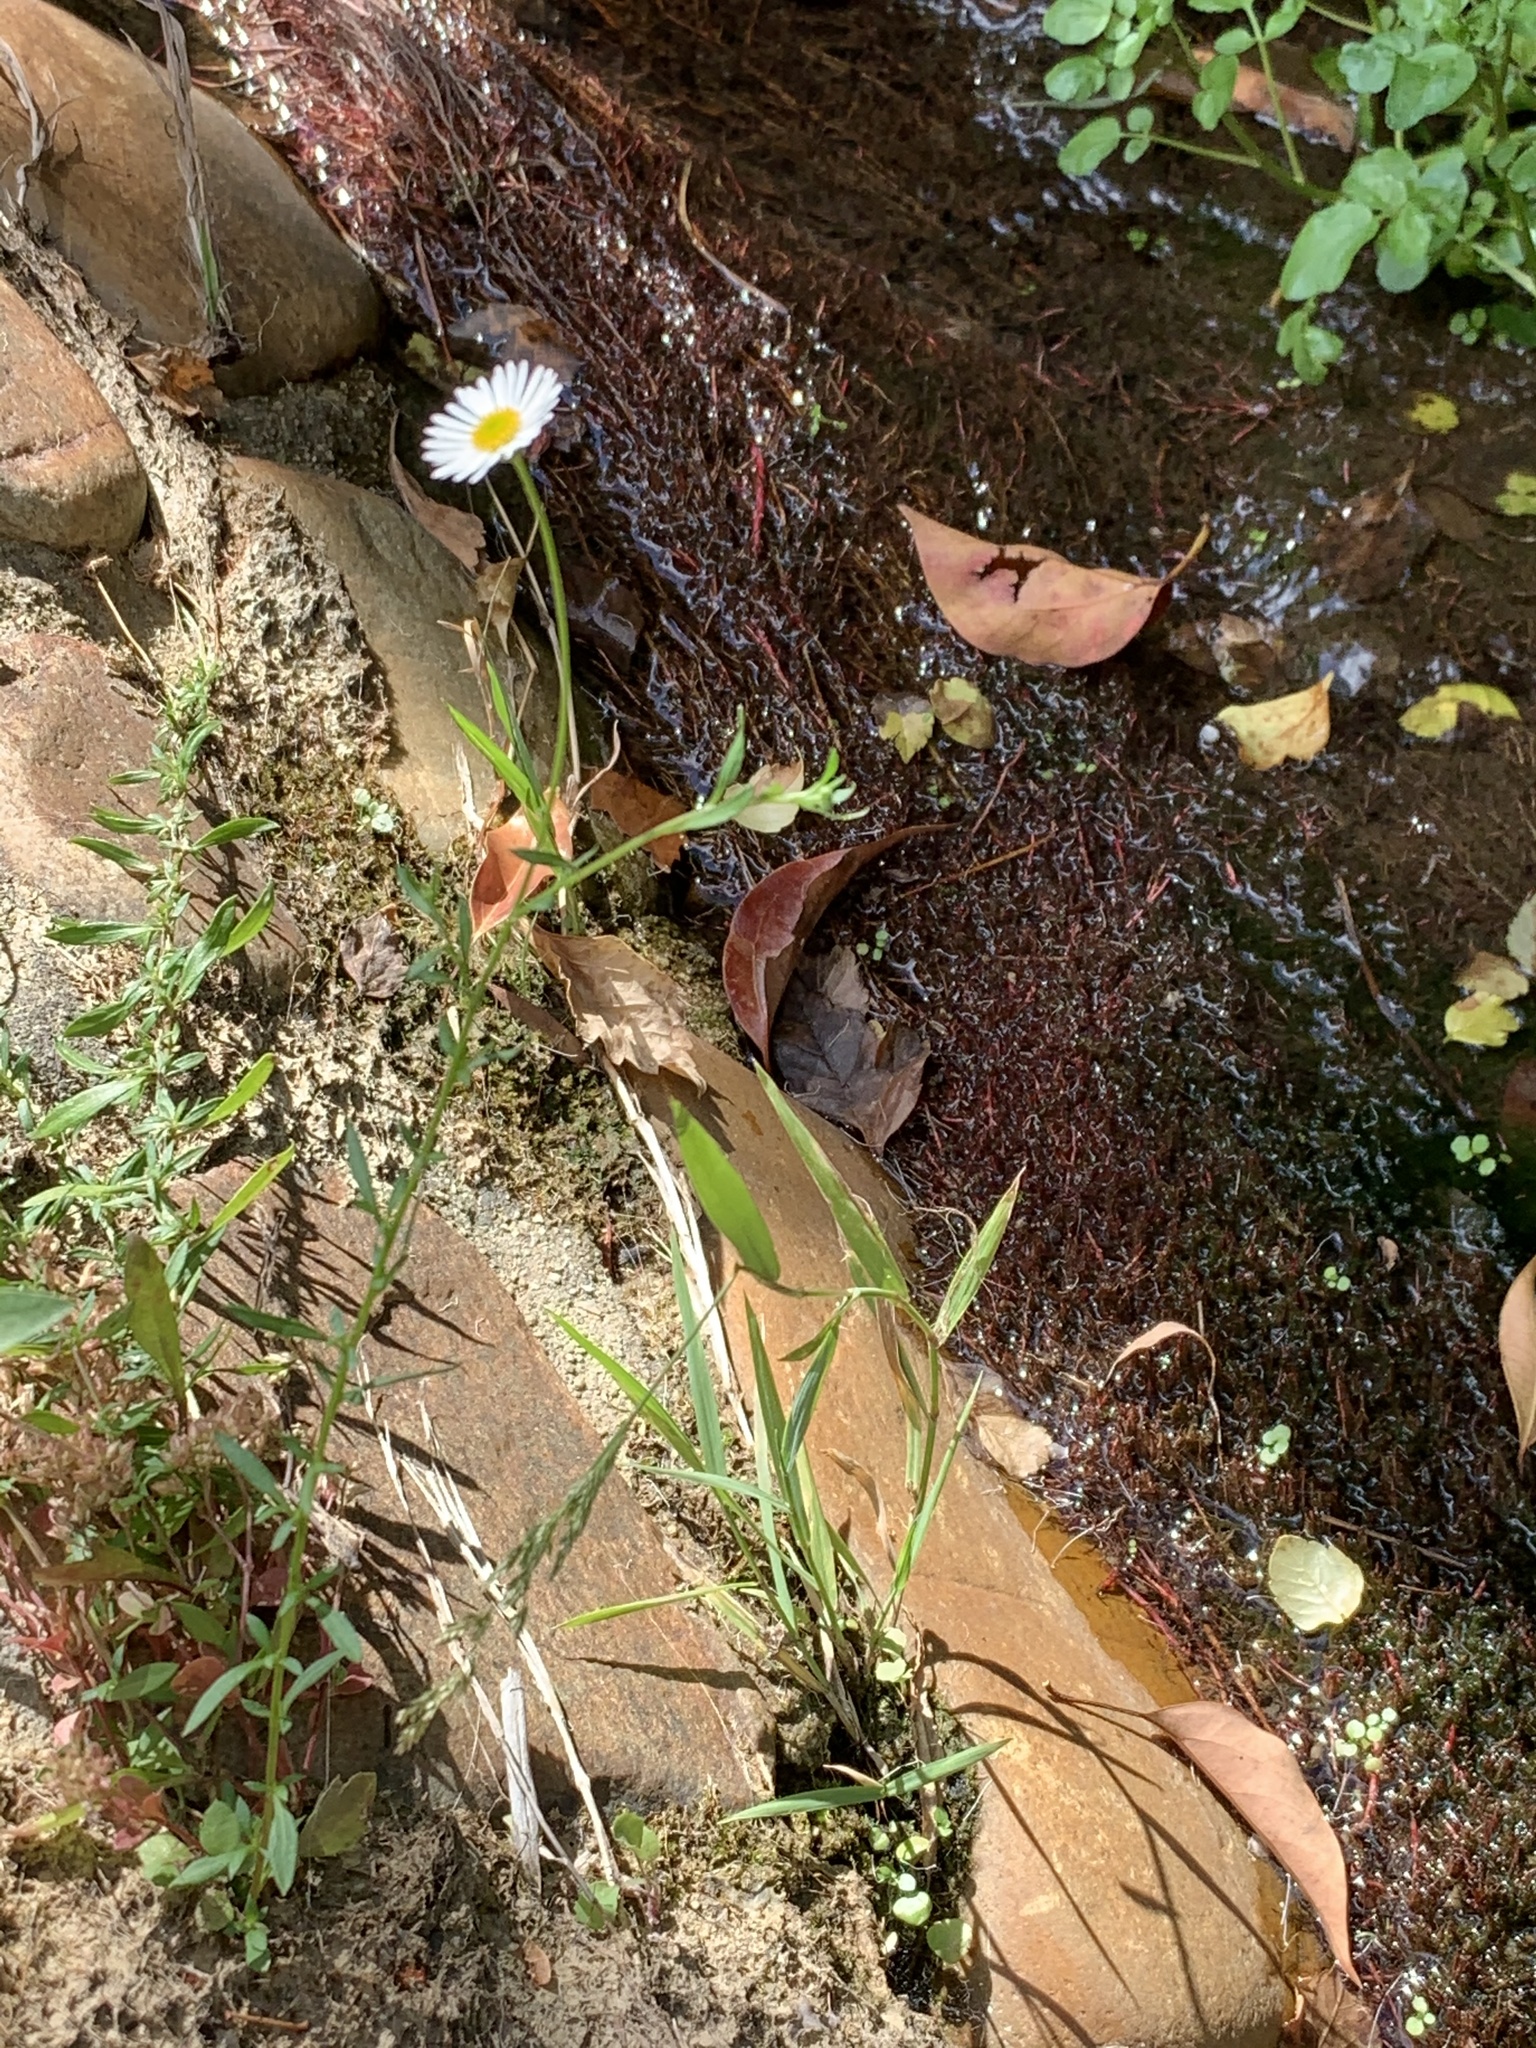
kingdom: Plantae
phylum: Tracheophyta
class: Magnoliopsida
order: Asterales
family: Asteraceae
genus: Erigeron
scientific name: Erigeron karvinskianus
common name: Mexican fleabane
